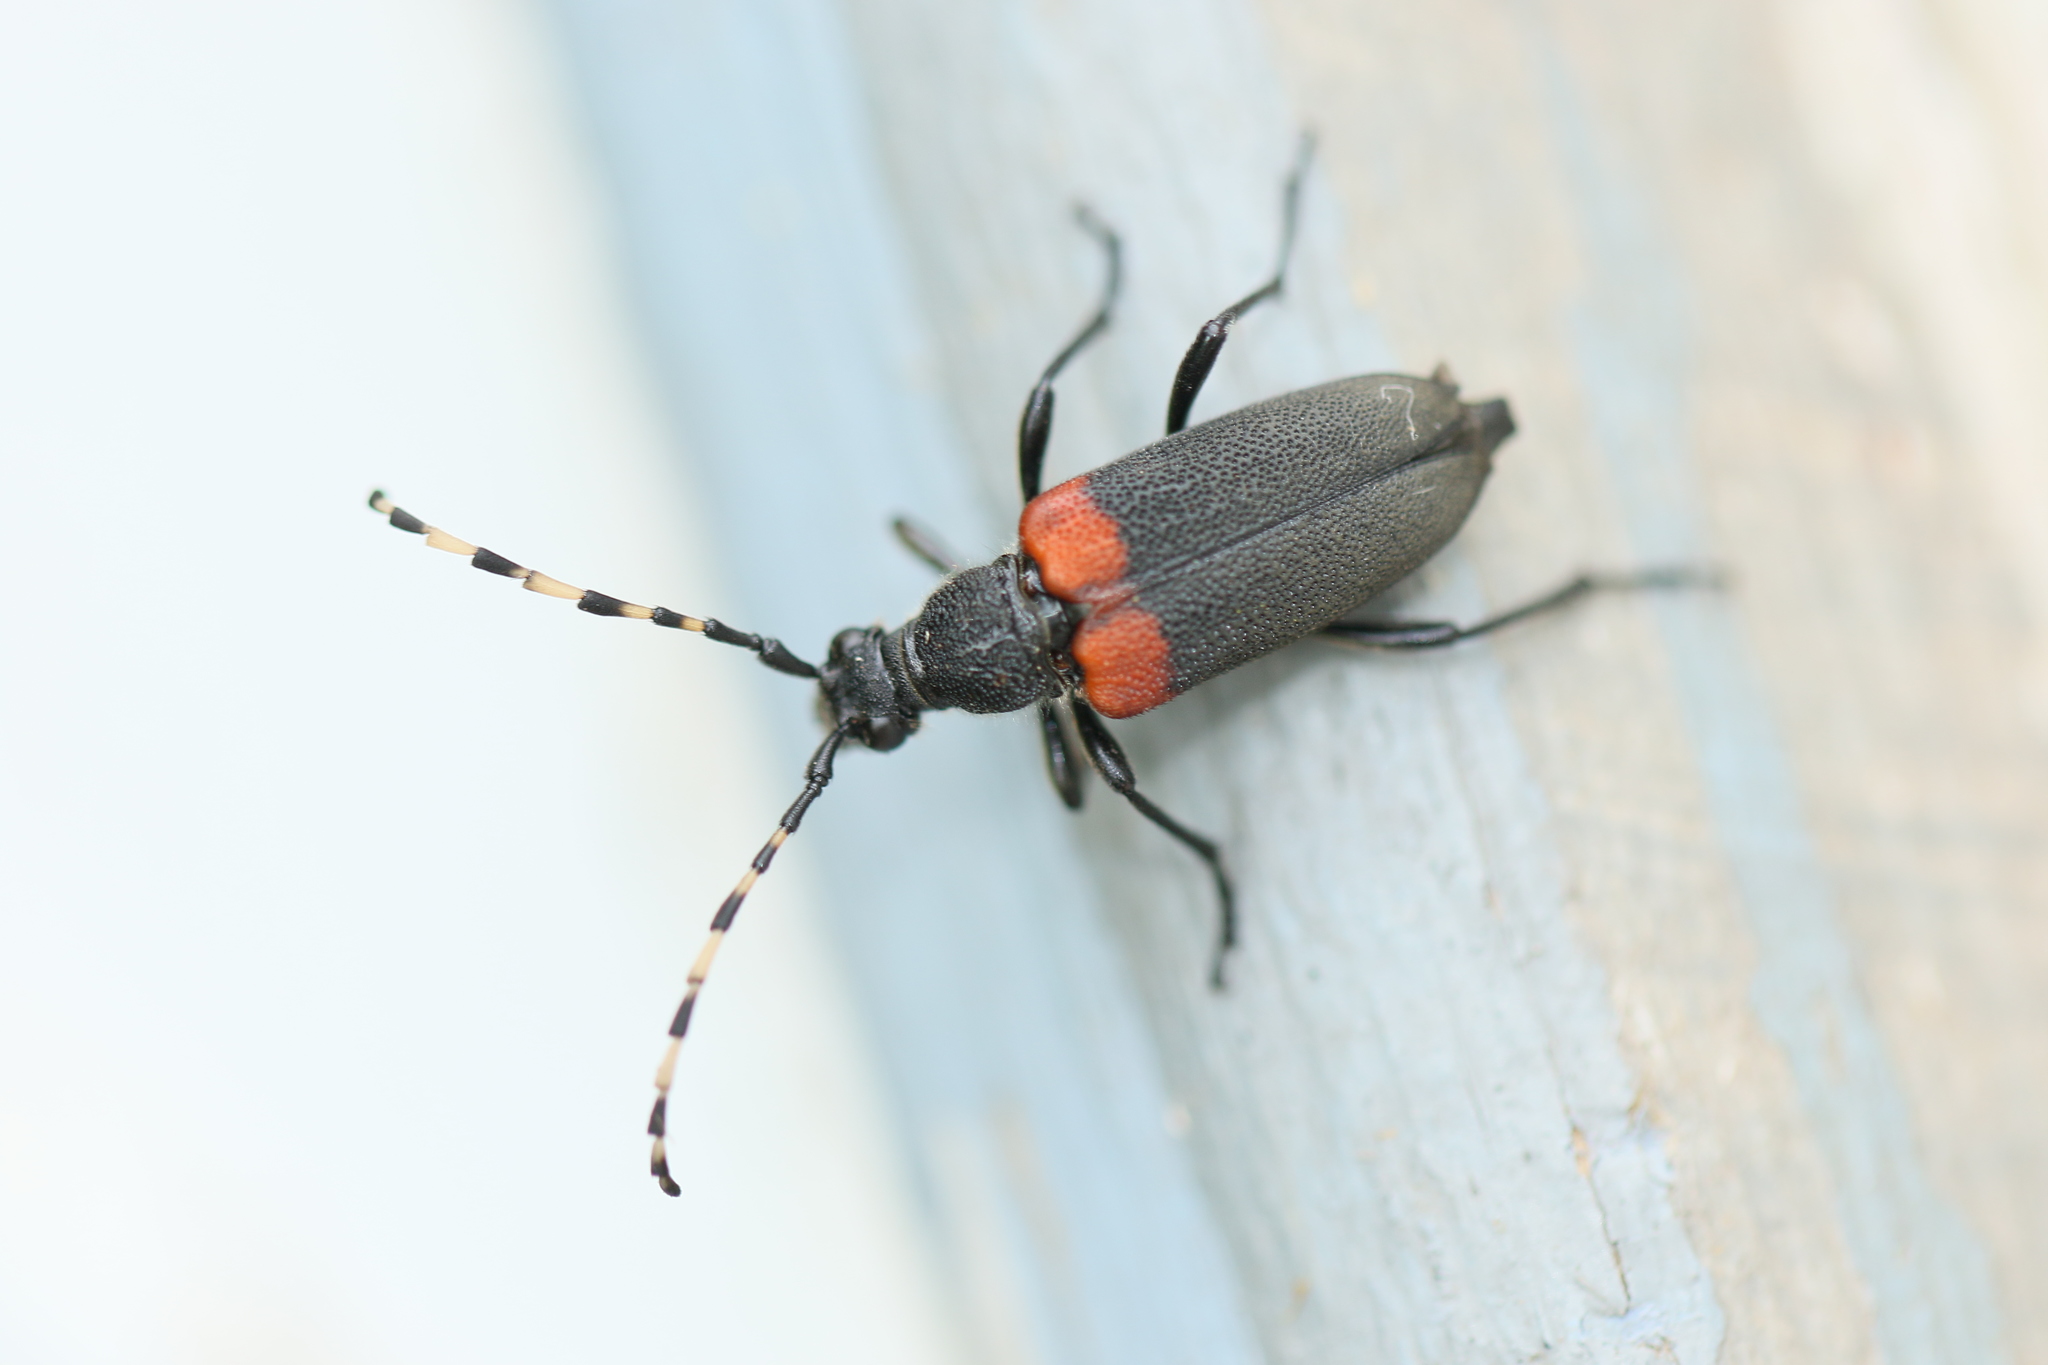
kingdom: Animalia
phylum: Arthropoda
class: Insecta
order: Coleoptera
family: Cerambycidae
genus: Stictoleptura
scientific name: Stictoleptura canadensis
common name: Red-shouldered pine borer
